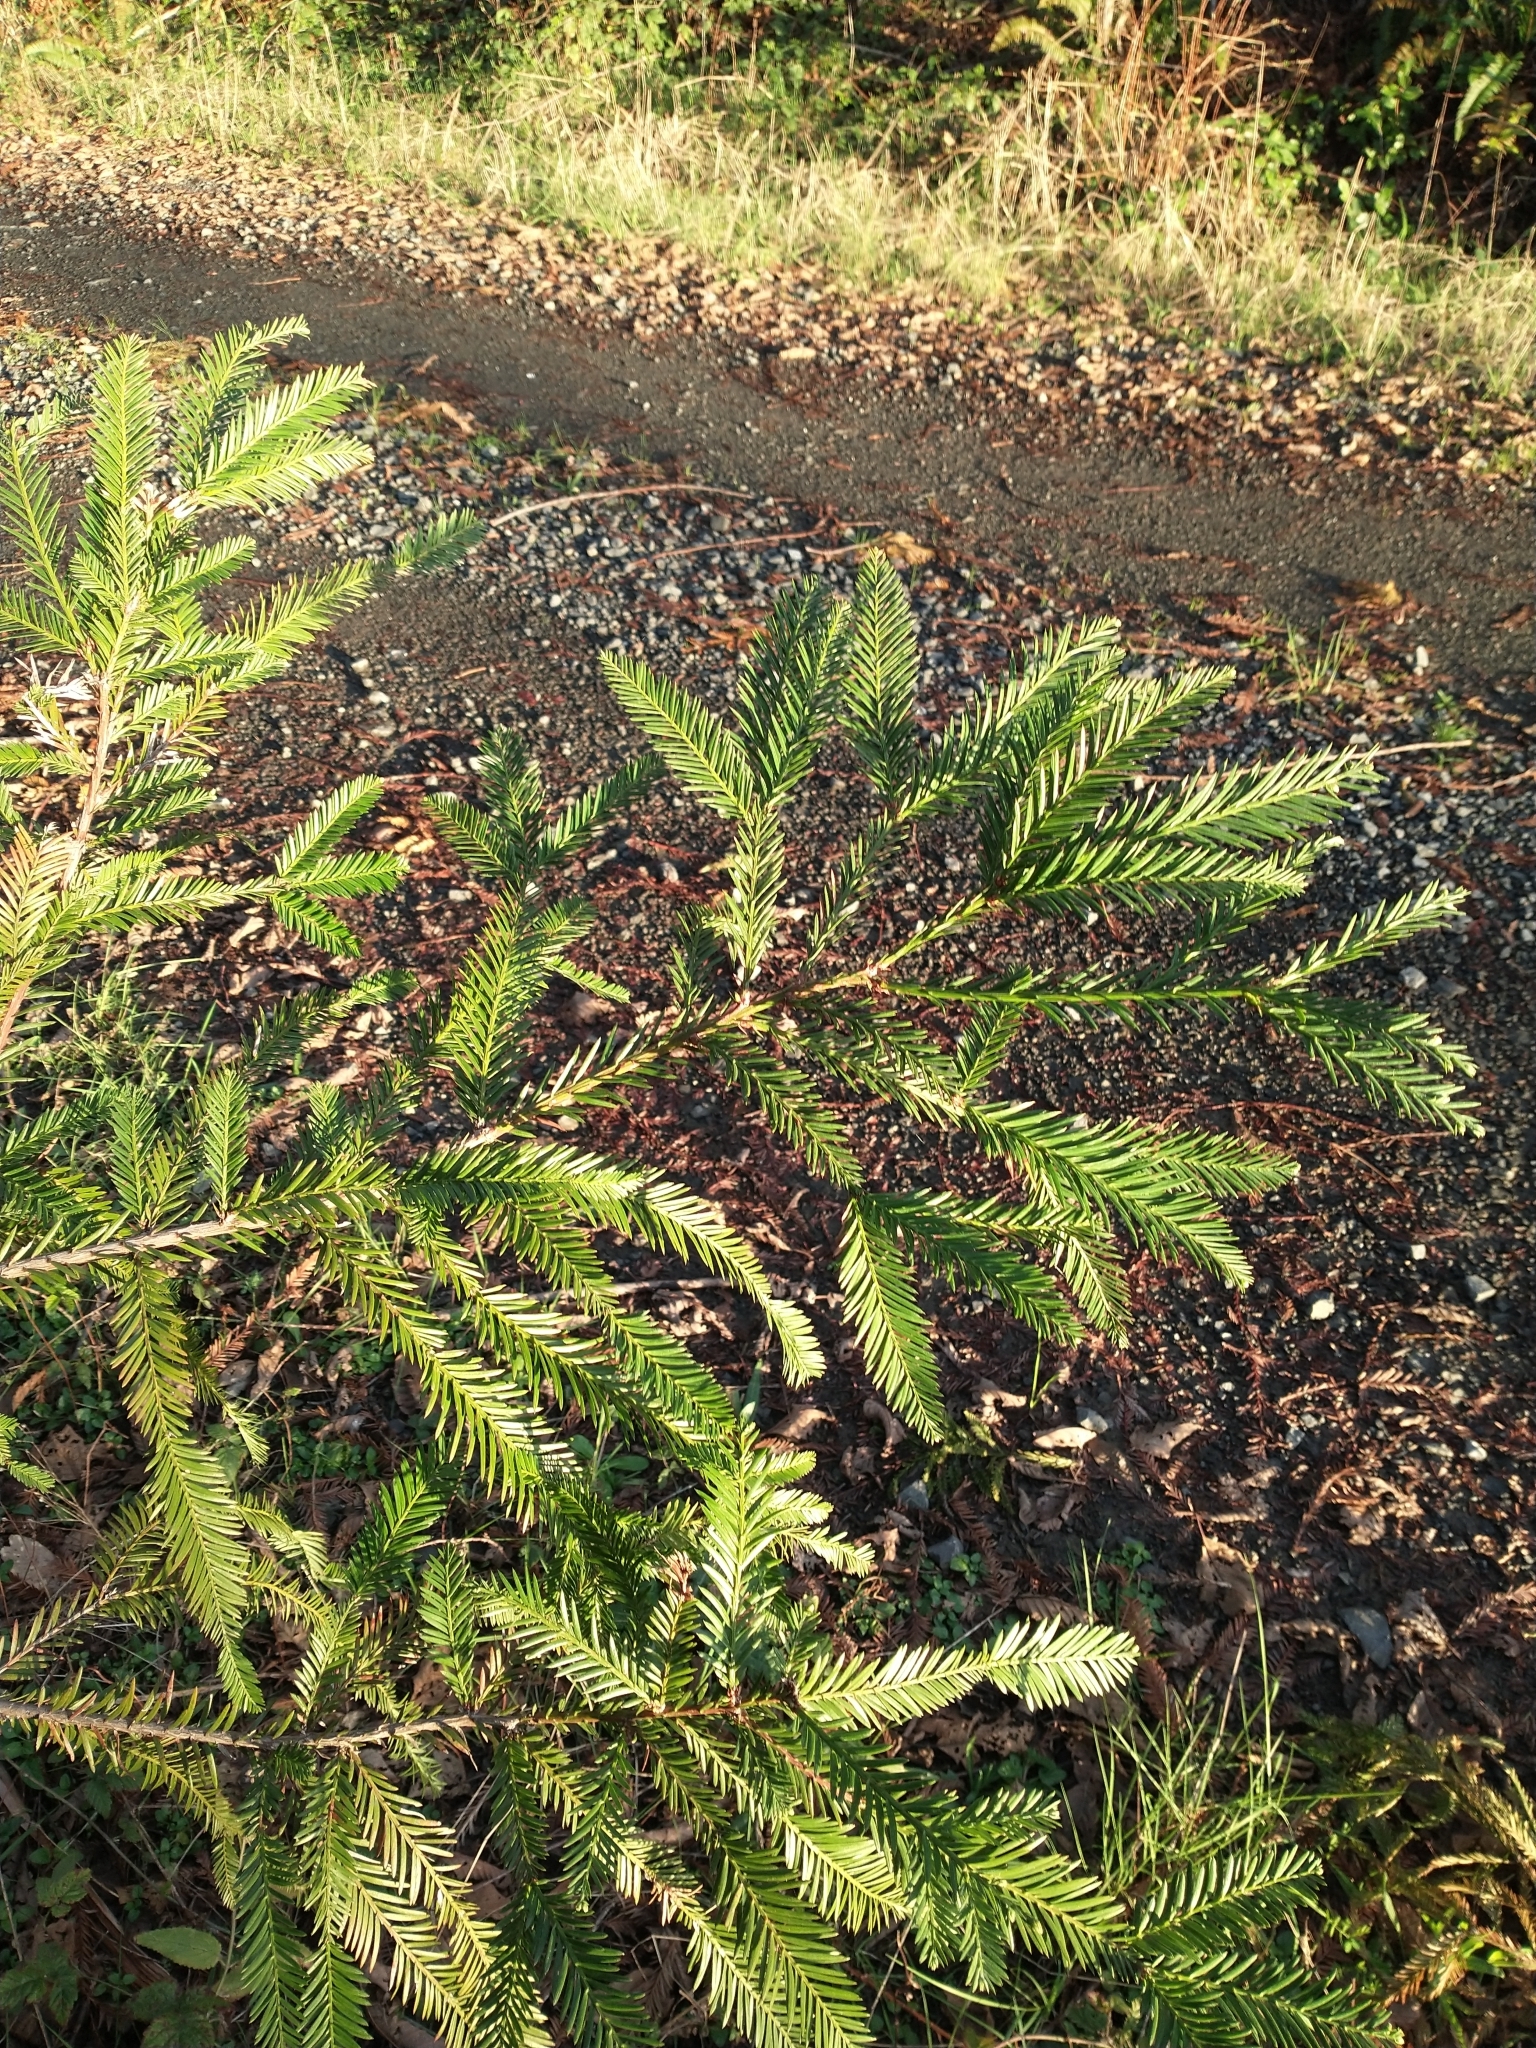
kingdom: Plantae
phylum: Tracheophyta
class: Pinopsida
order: Pinales
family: Cupressaceae
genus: Sequoia
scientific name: Sequoia sempervirens
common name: Coast redwood
